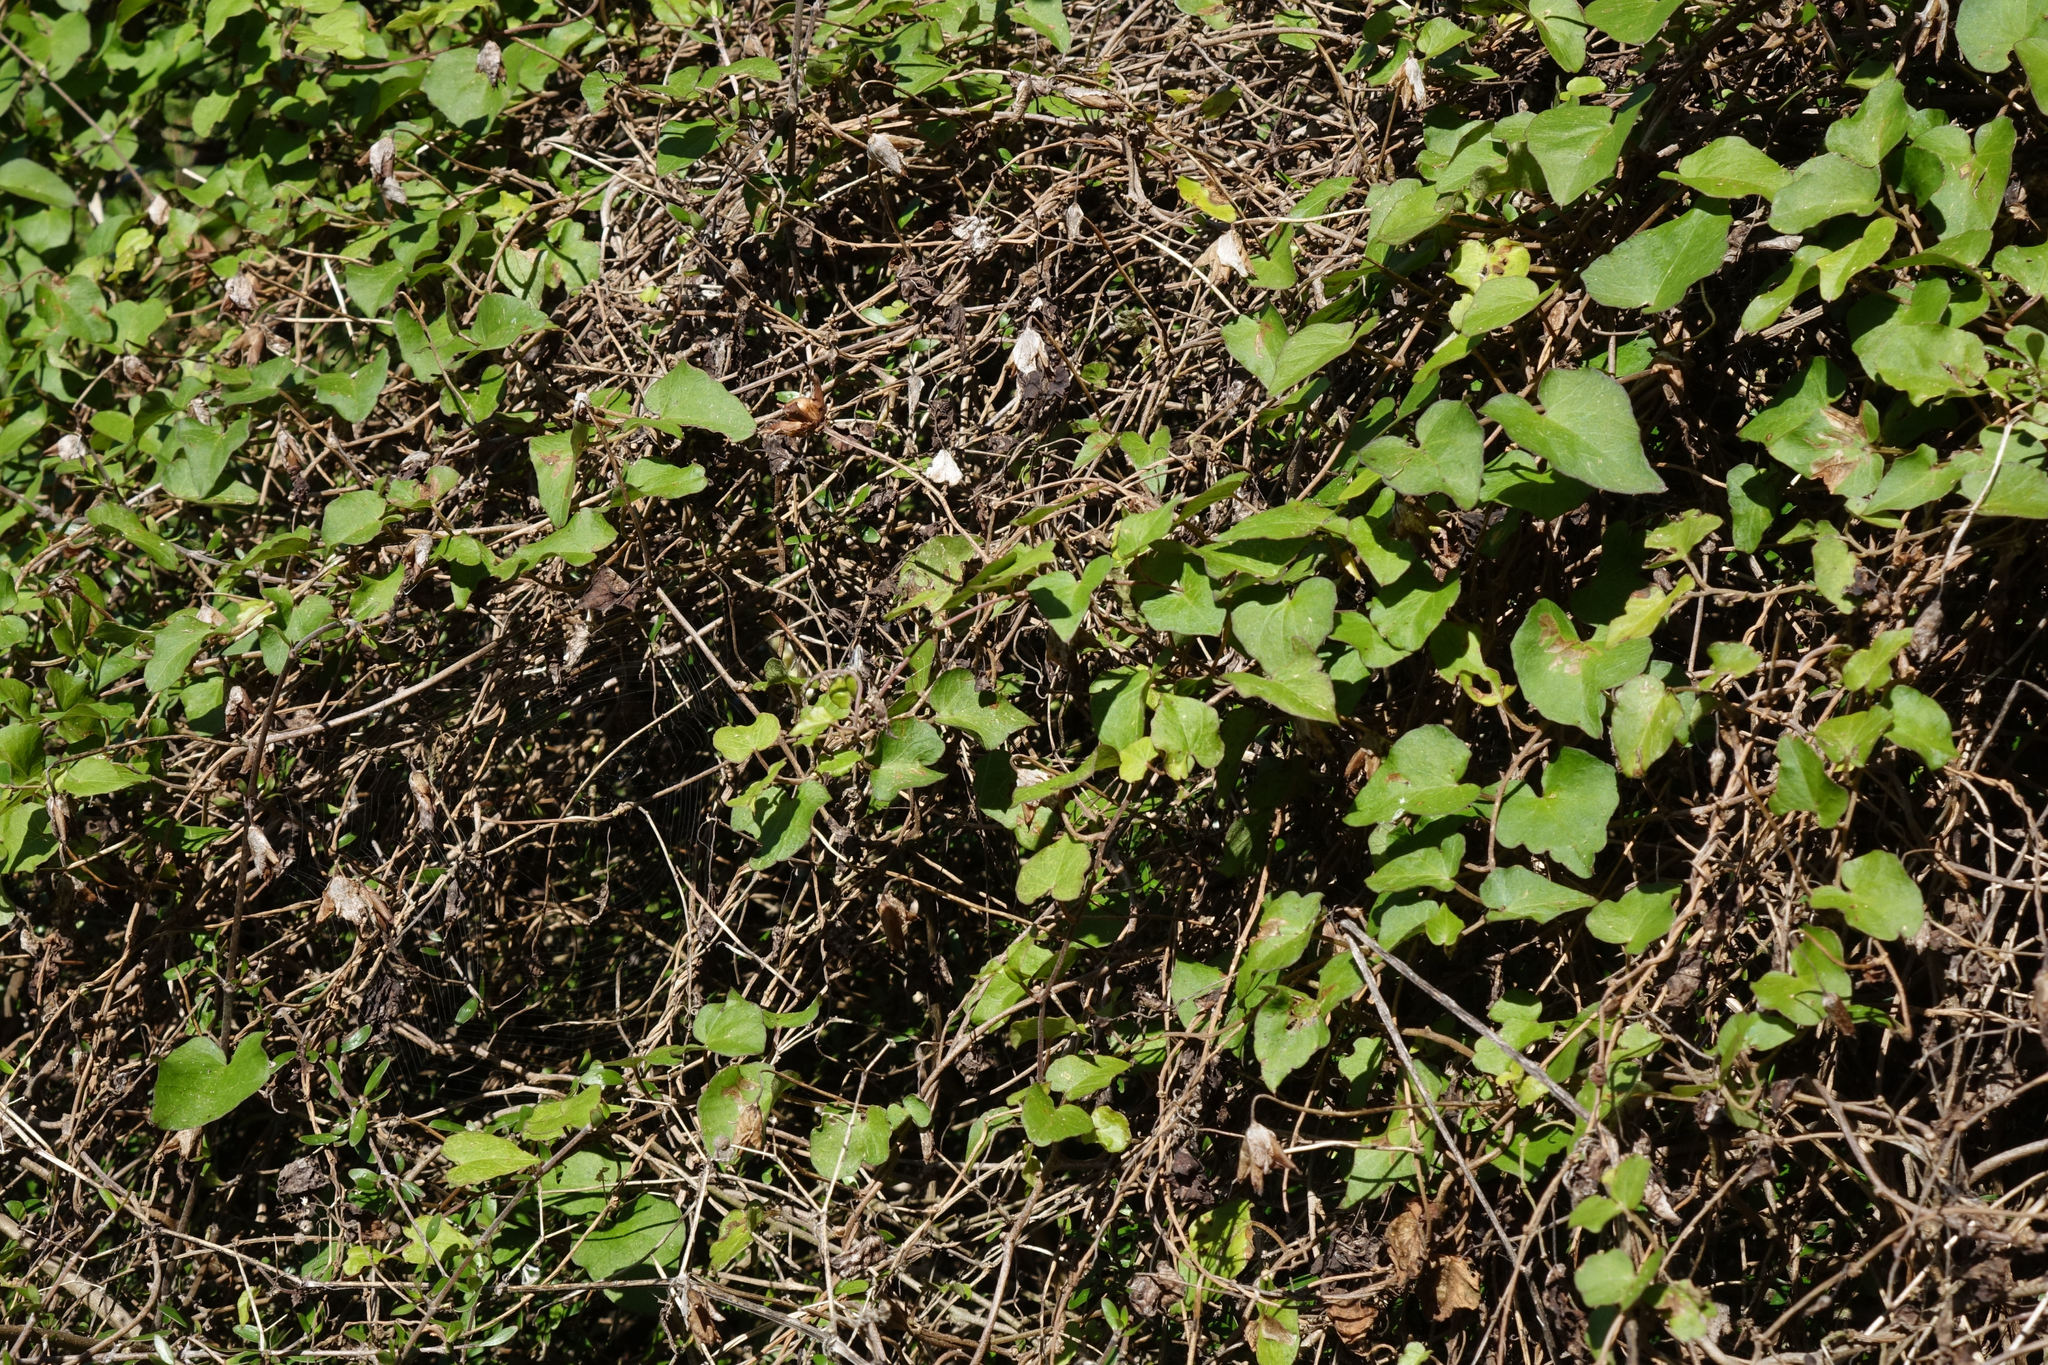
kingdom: Plantae
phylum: Tracheophyta
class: Magnoliopsida
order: Solanales
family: Convolvulaceae
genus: Calystegia
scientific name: Calystegia tuguriorum
